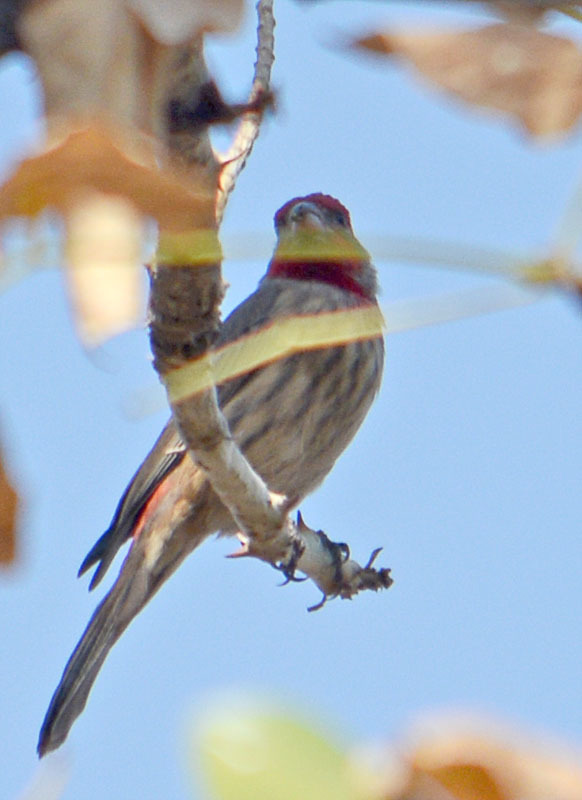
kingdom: Animalia
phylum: Chordata
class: Aves
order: Passeriformes
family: Fringillidae
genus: Haemorhous
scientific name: Haemorhous mexicanus
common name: House finch
